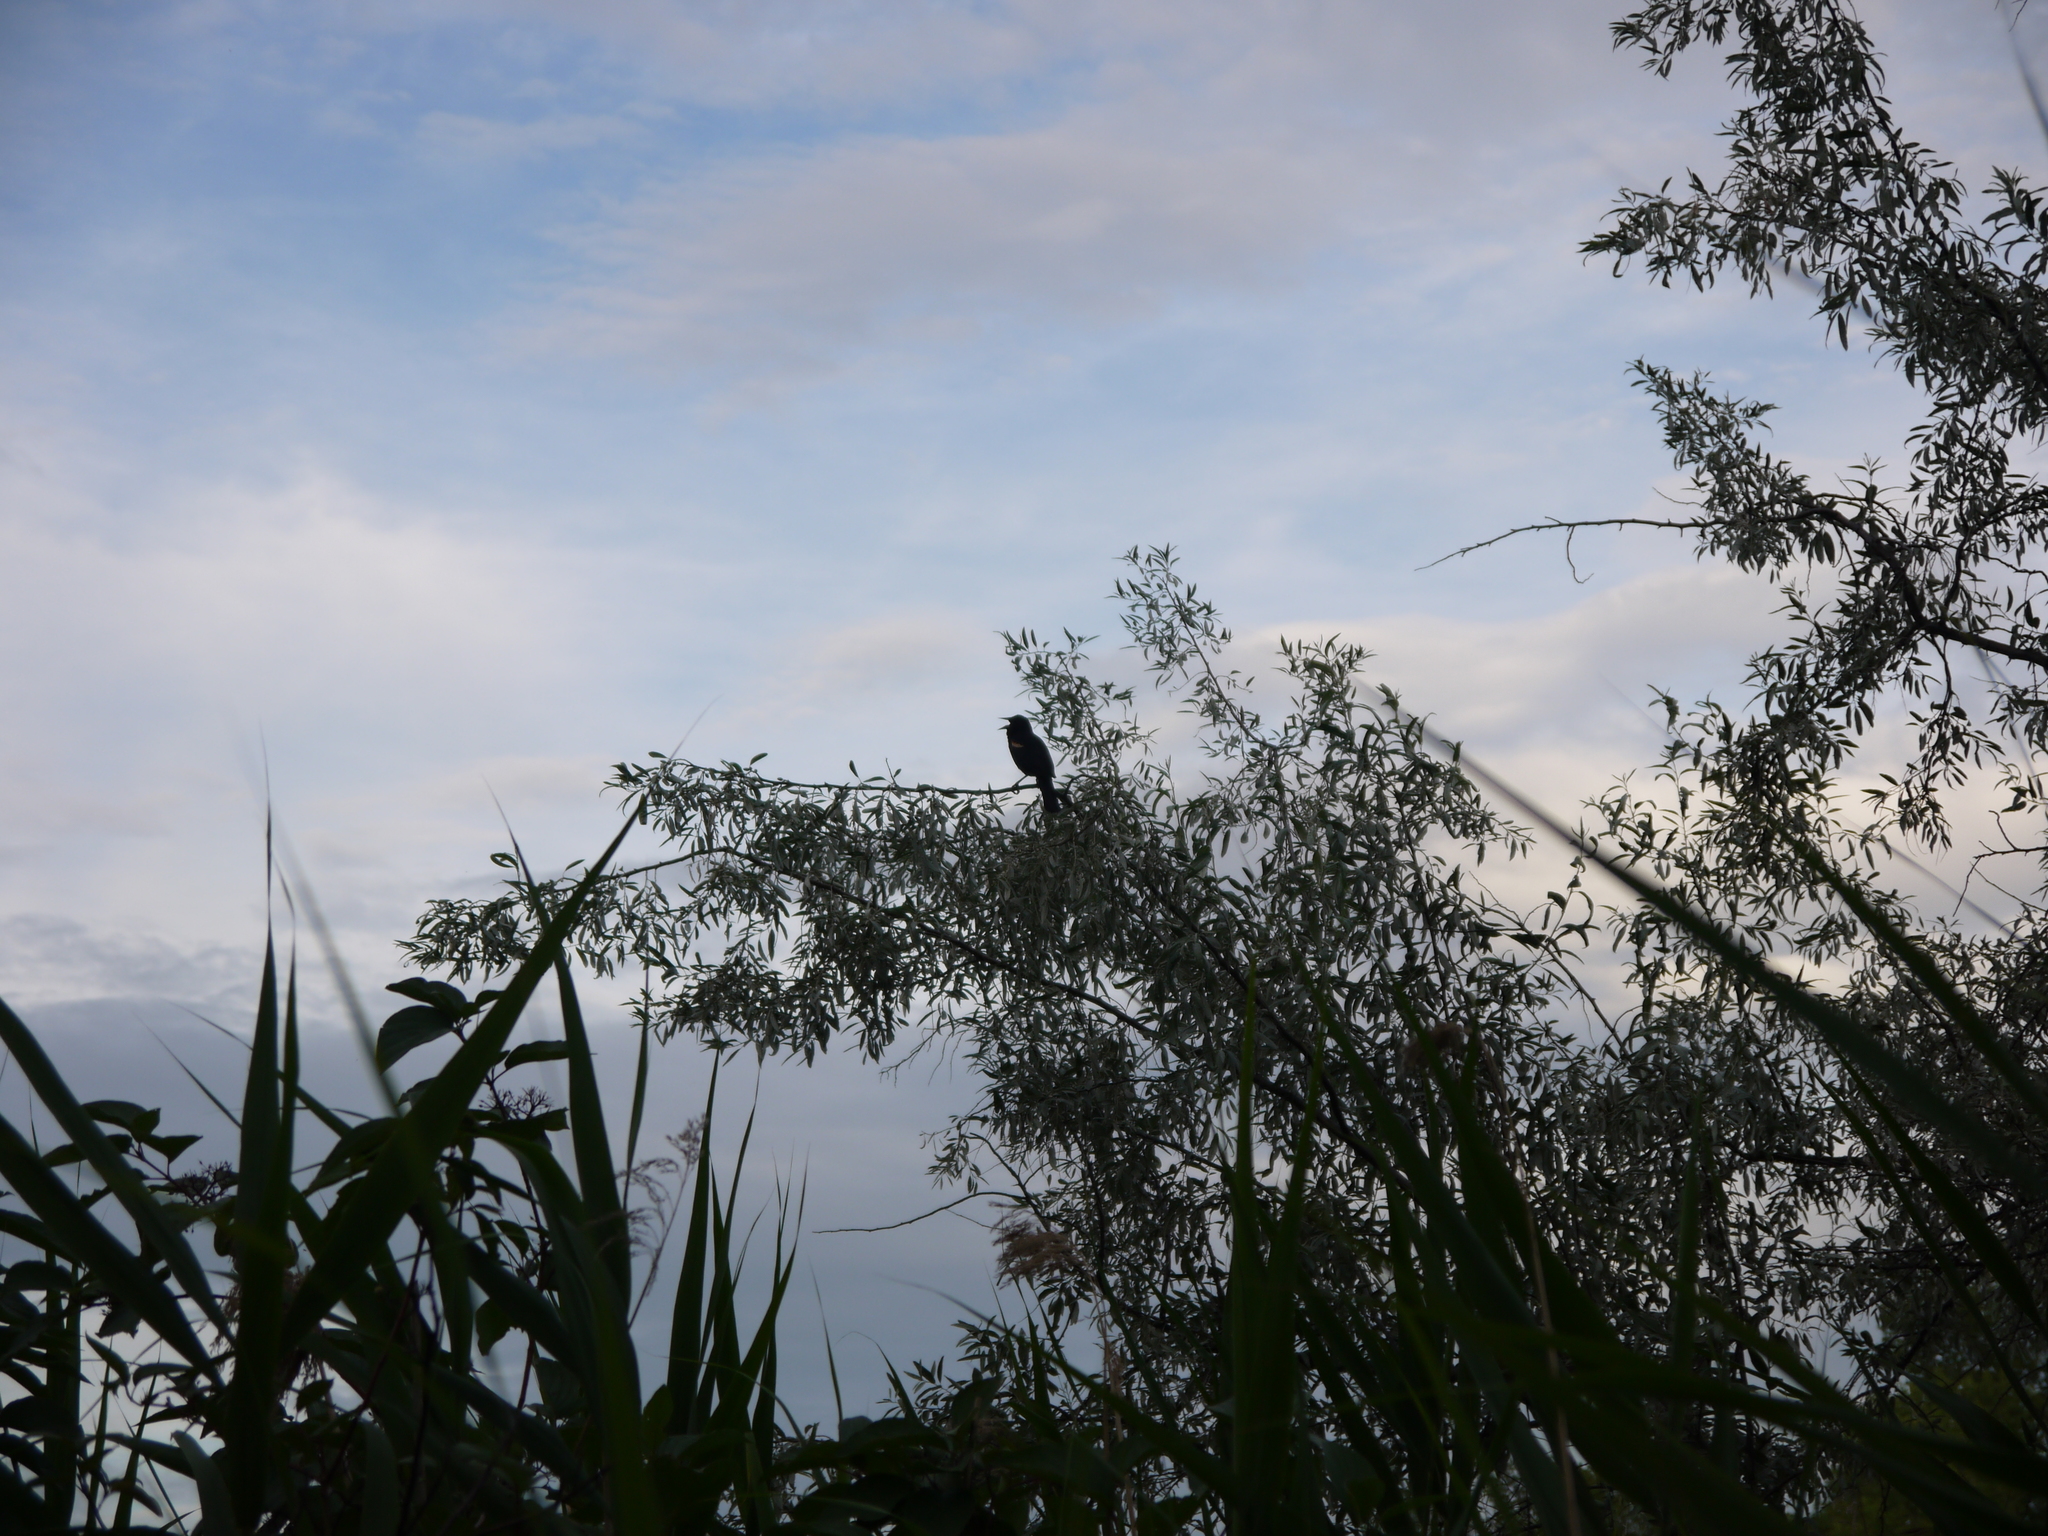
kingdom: Animalia
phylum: Chordata
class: Aves
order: Passeriformes
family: Icteridae
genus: Agelaius
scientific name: Agelaius phoeniceus
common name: Red-winged blackbird
